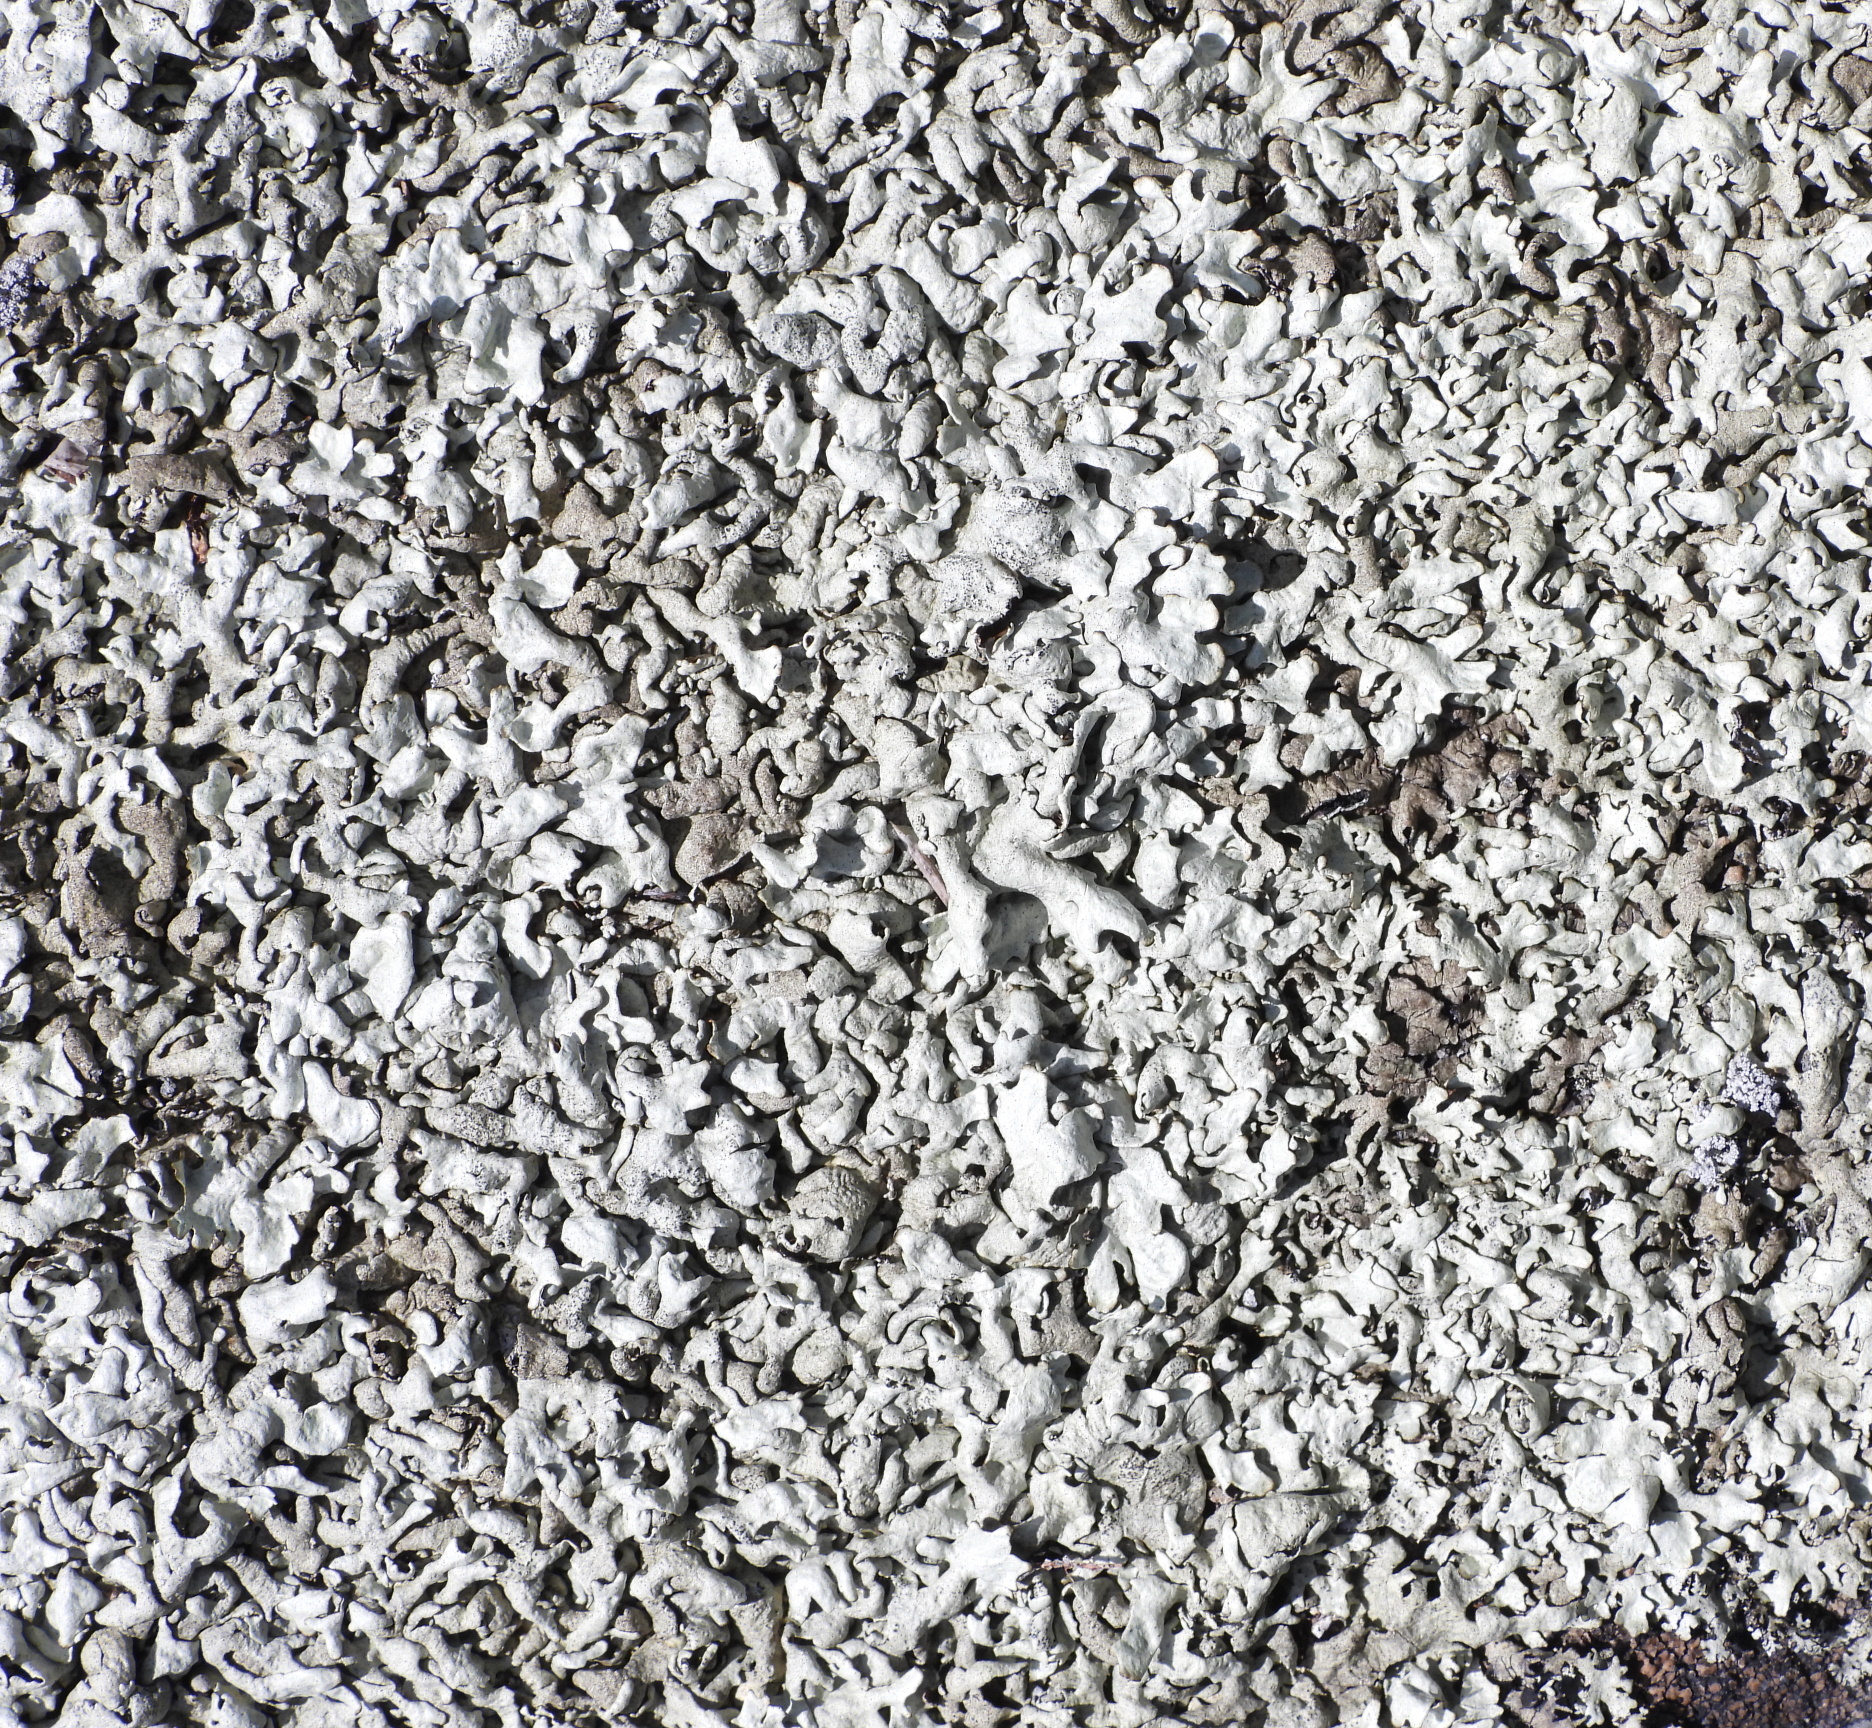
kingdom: Fungi
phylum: Ascomycota
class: Lecanoromycetes
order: Lecanorales
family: Parmeliaceae
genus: Xanthoparmelia
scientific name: Xanthoparmelia stenophylla
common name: Shingled rock shield
